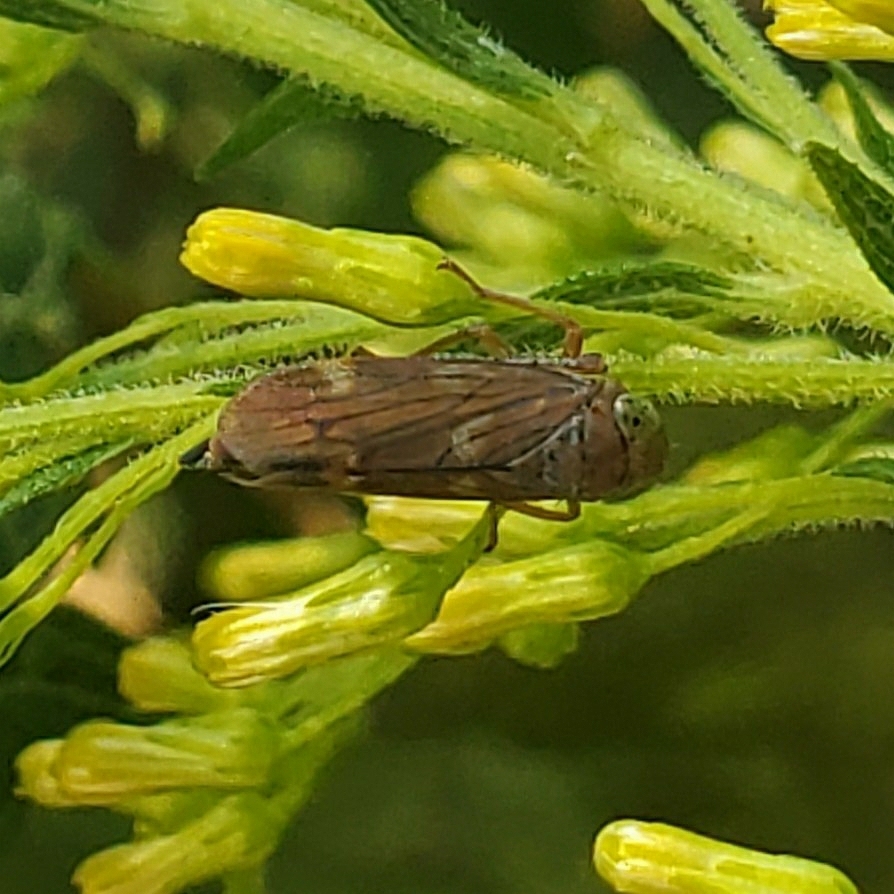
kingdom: Animalia
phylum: Arthropoda
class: Insecta
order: Hemiptera
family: Cicadellidae
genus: Jikradia
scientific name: Jikradia olitoria
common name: Coppery leafhopper
